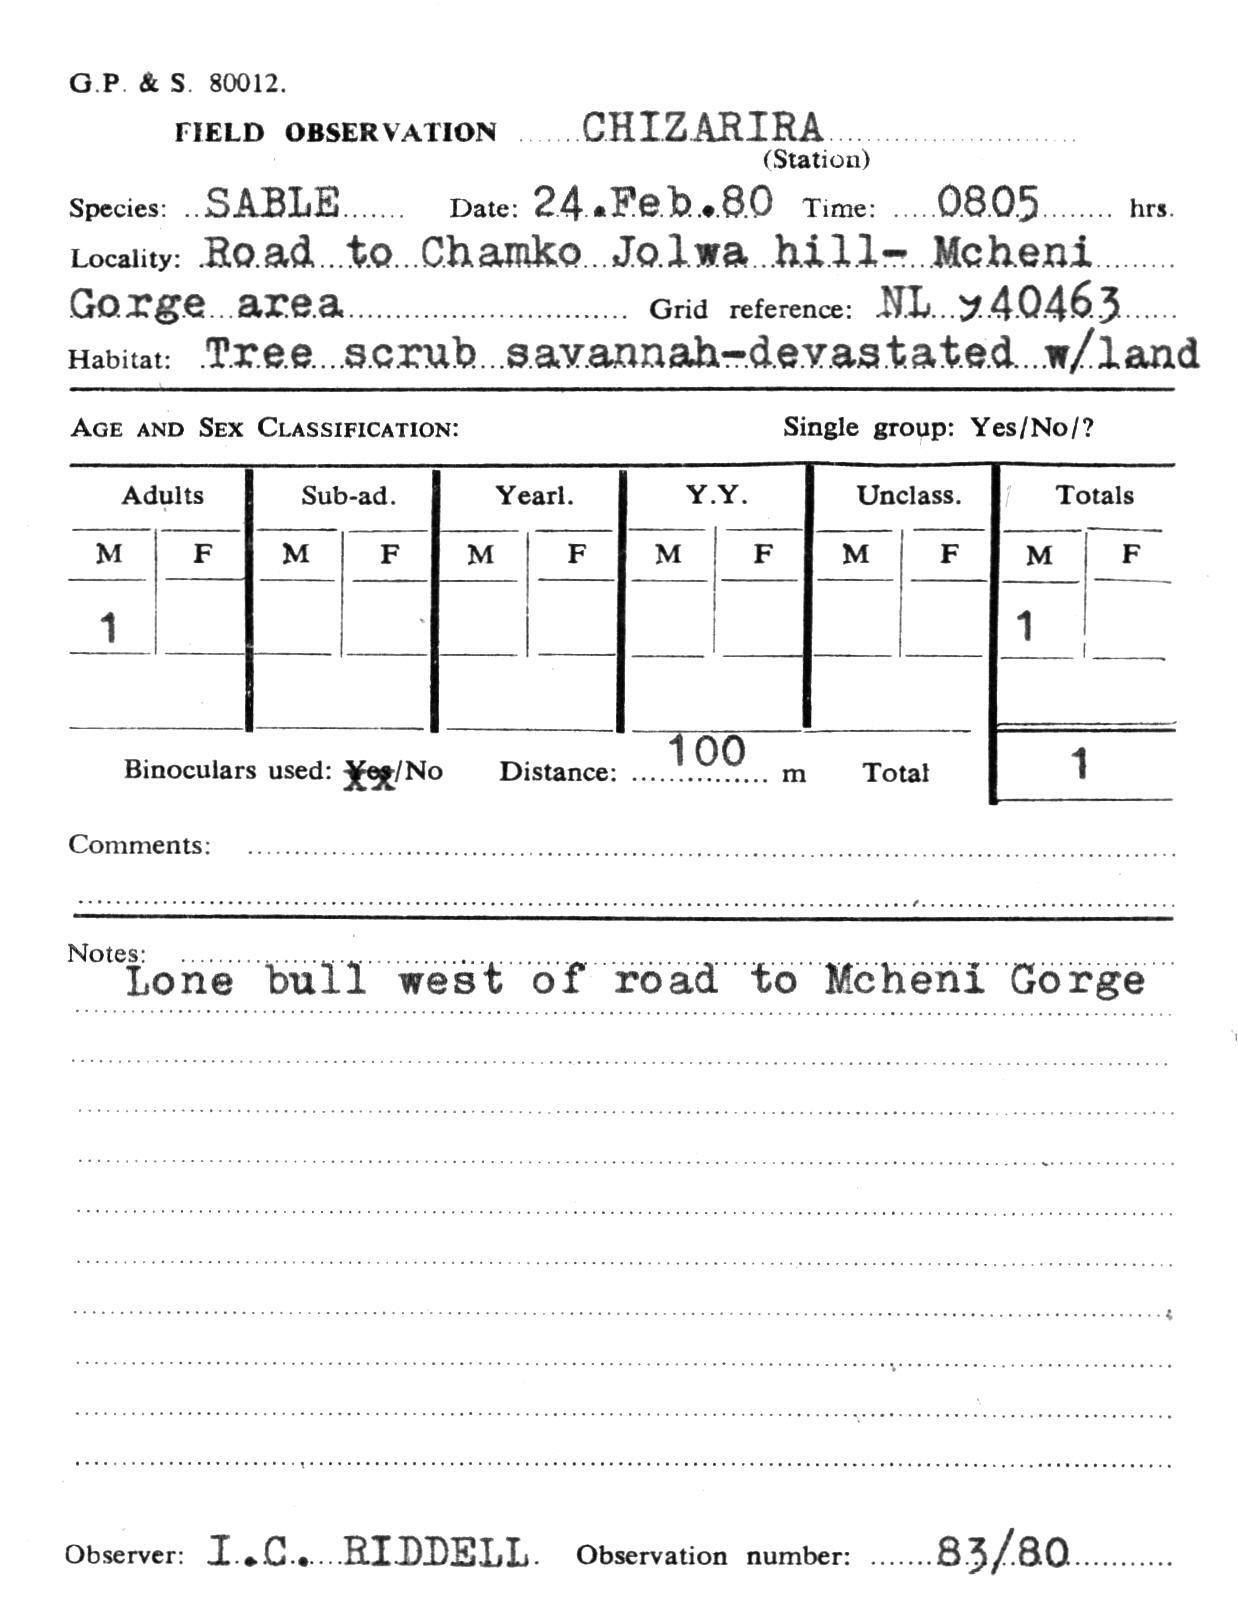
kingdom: Animalia
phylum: Chordata
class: Mammalia
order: Artiodactyla
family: Bovidae
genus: Hippotragus
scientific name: Hippotragus niger
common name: Sable antelope
